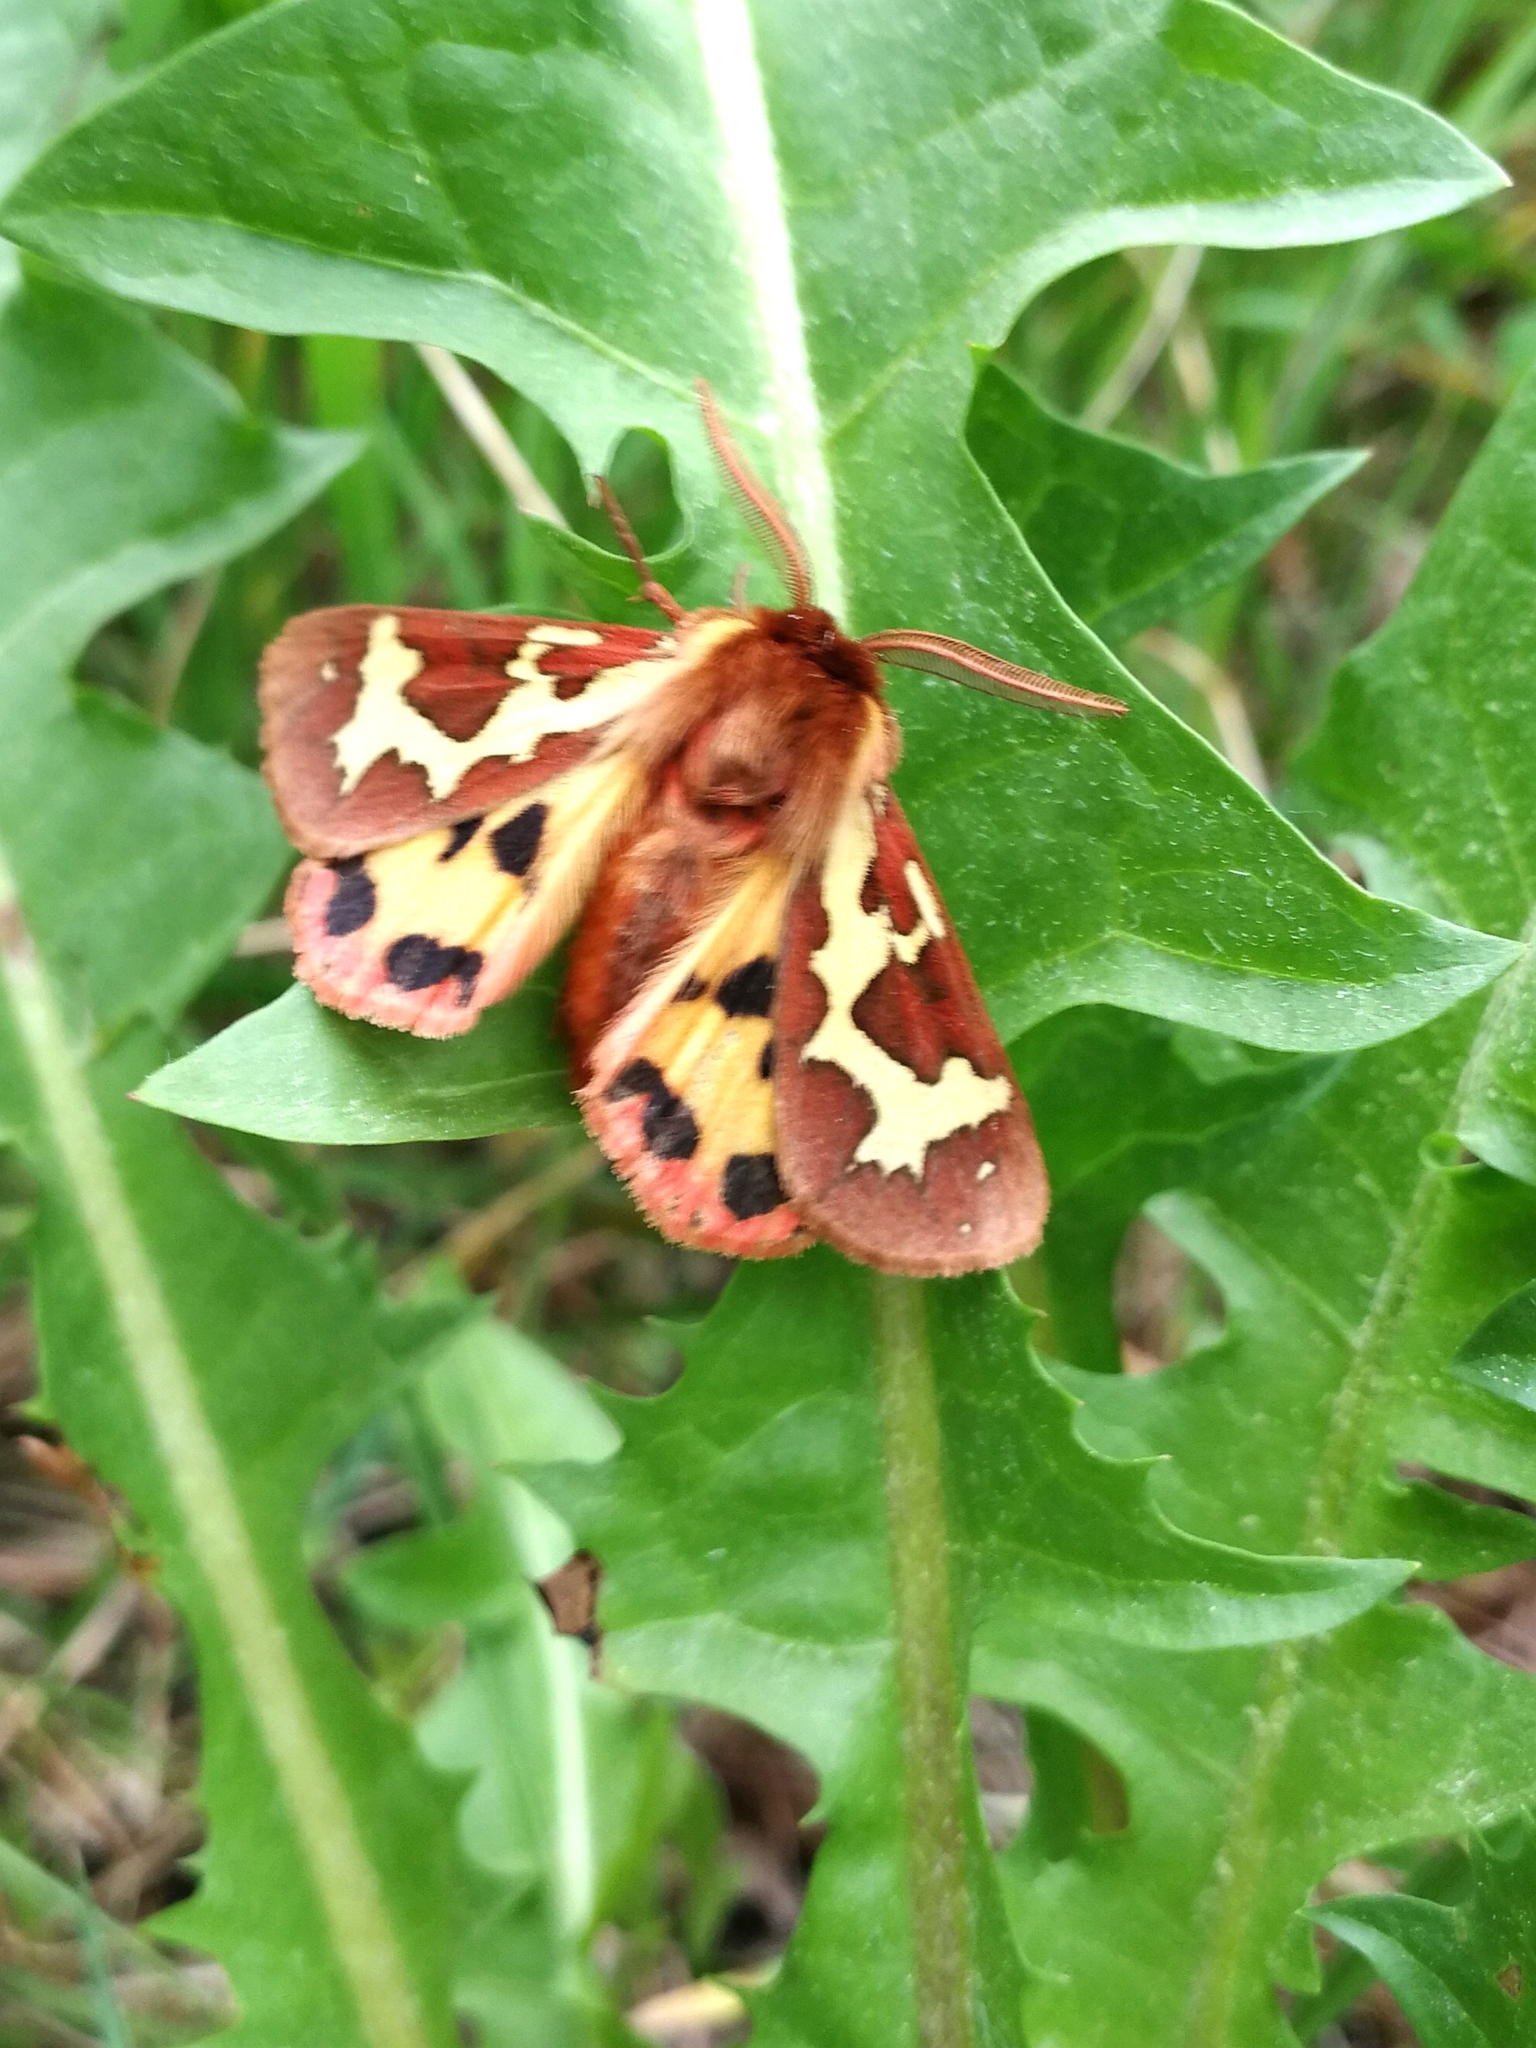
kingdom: Animalia
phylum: Arthropoda
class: Insecta
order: Lepidoptera
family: Erebidae
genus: Arctia
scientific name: Arctia dejeani
